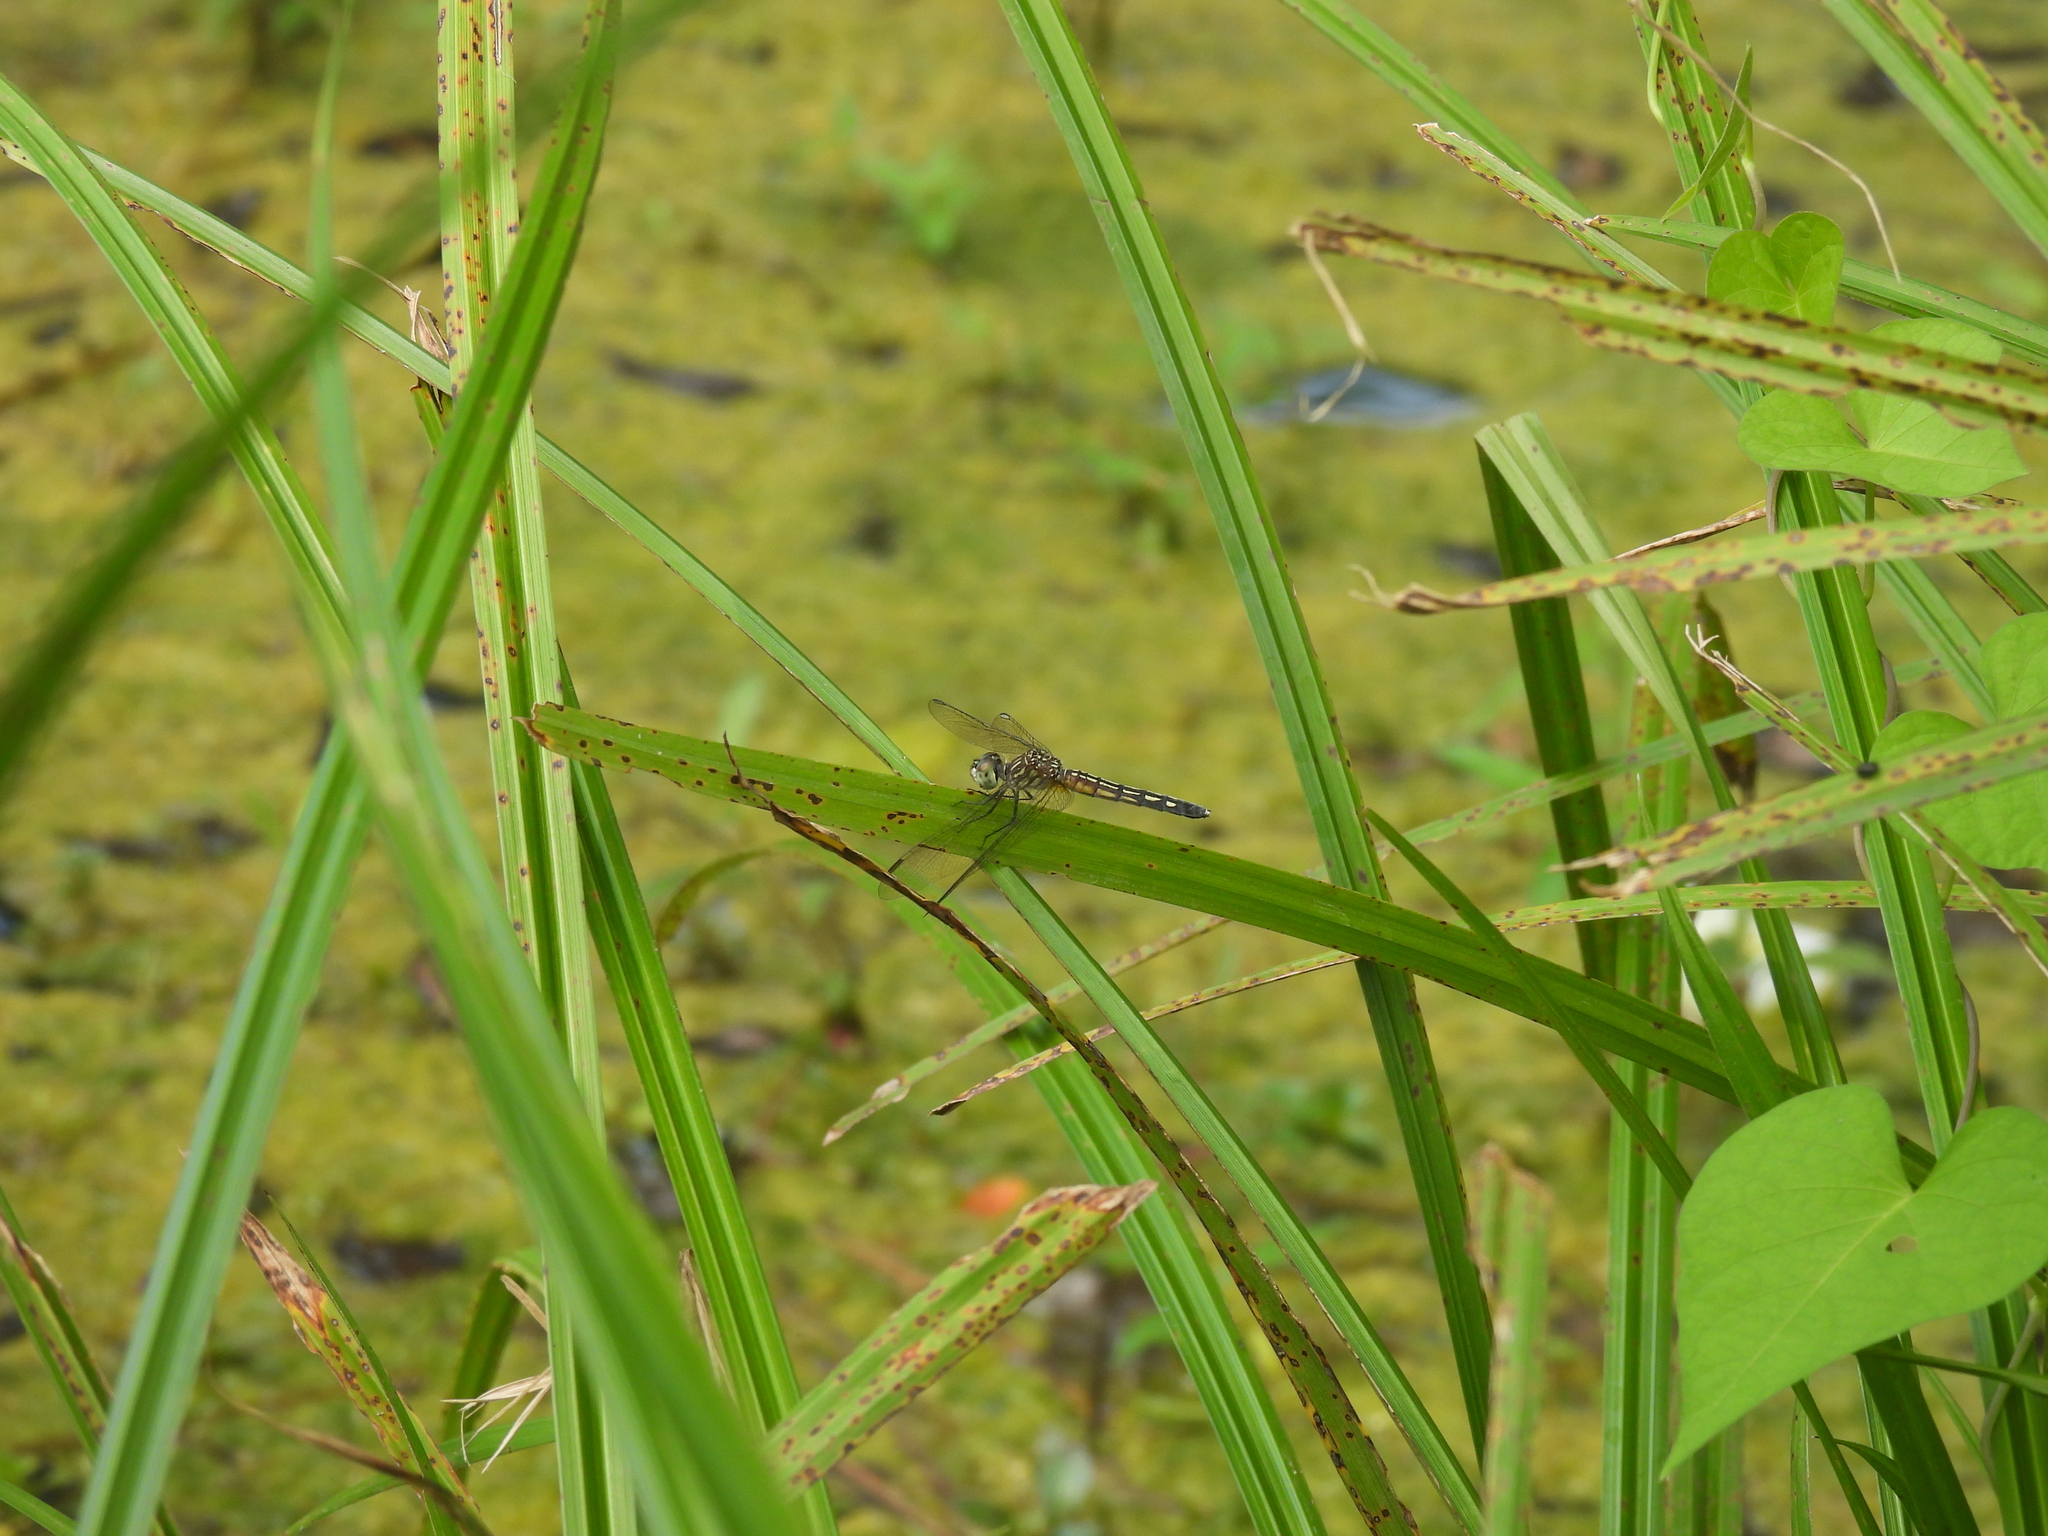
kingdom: Animalia
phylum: Arthropoda
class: Insecta
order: Odonata
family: Libellulidae
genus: Pachydiplax
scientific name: Pachydiplax longipennis
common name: Blue dasher
